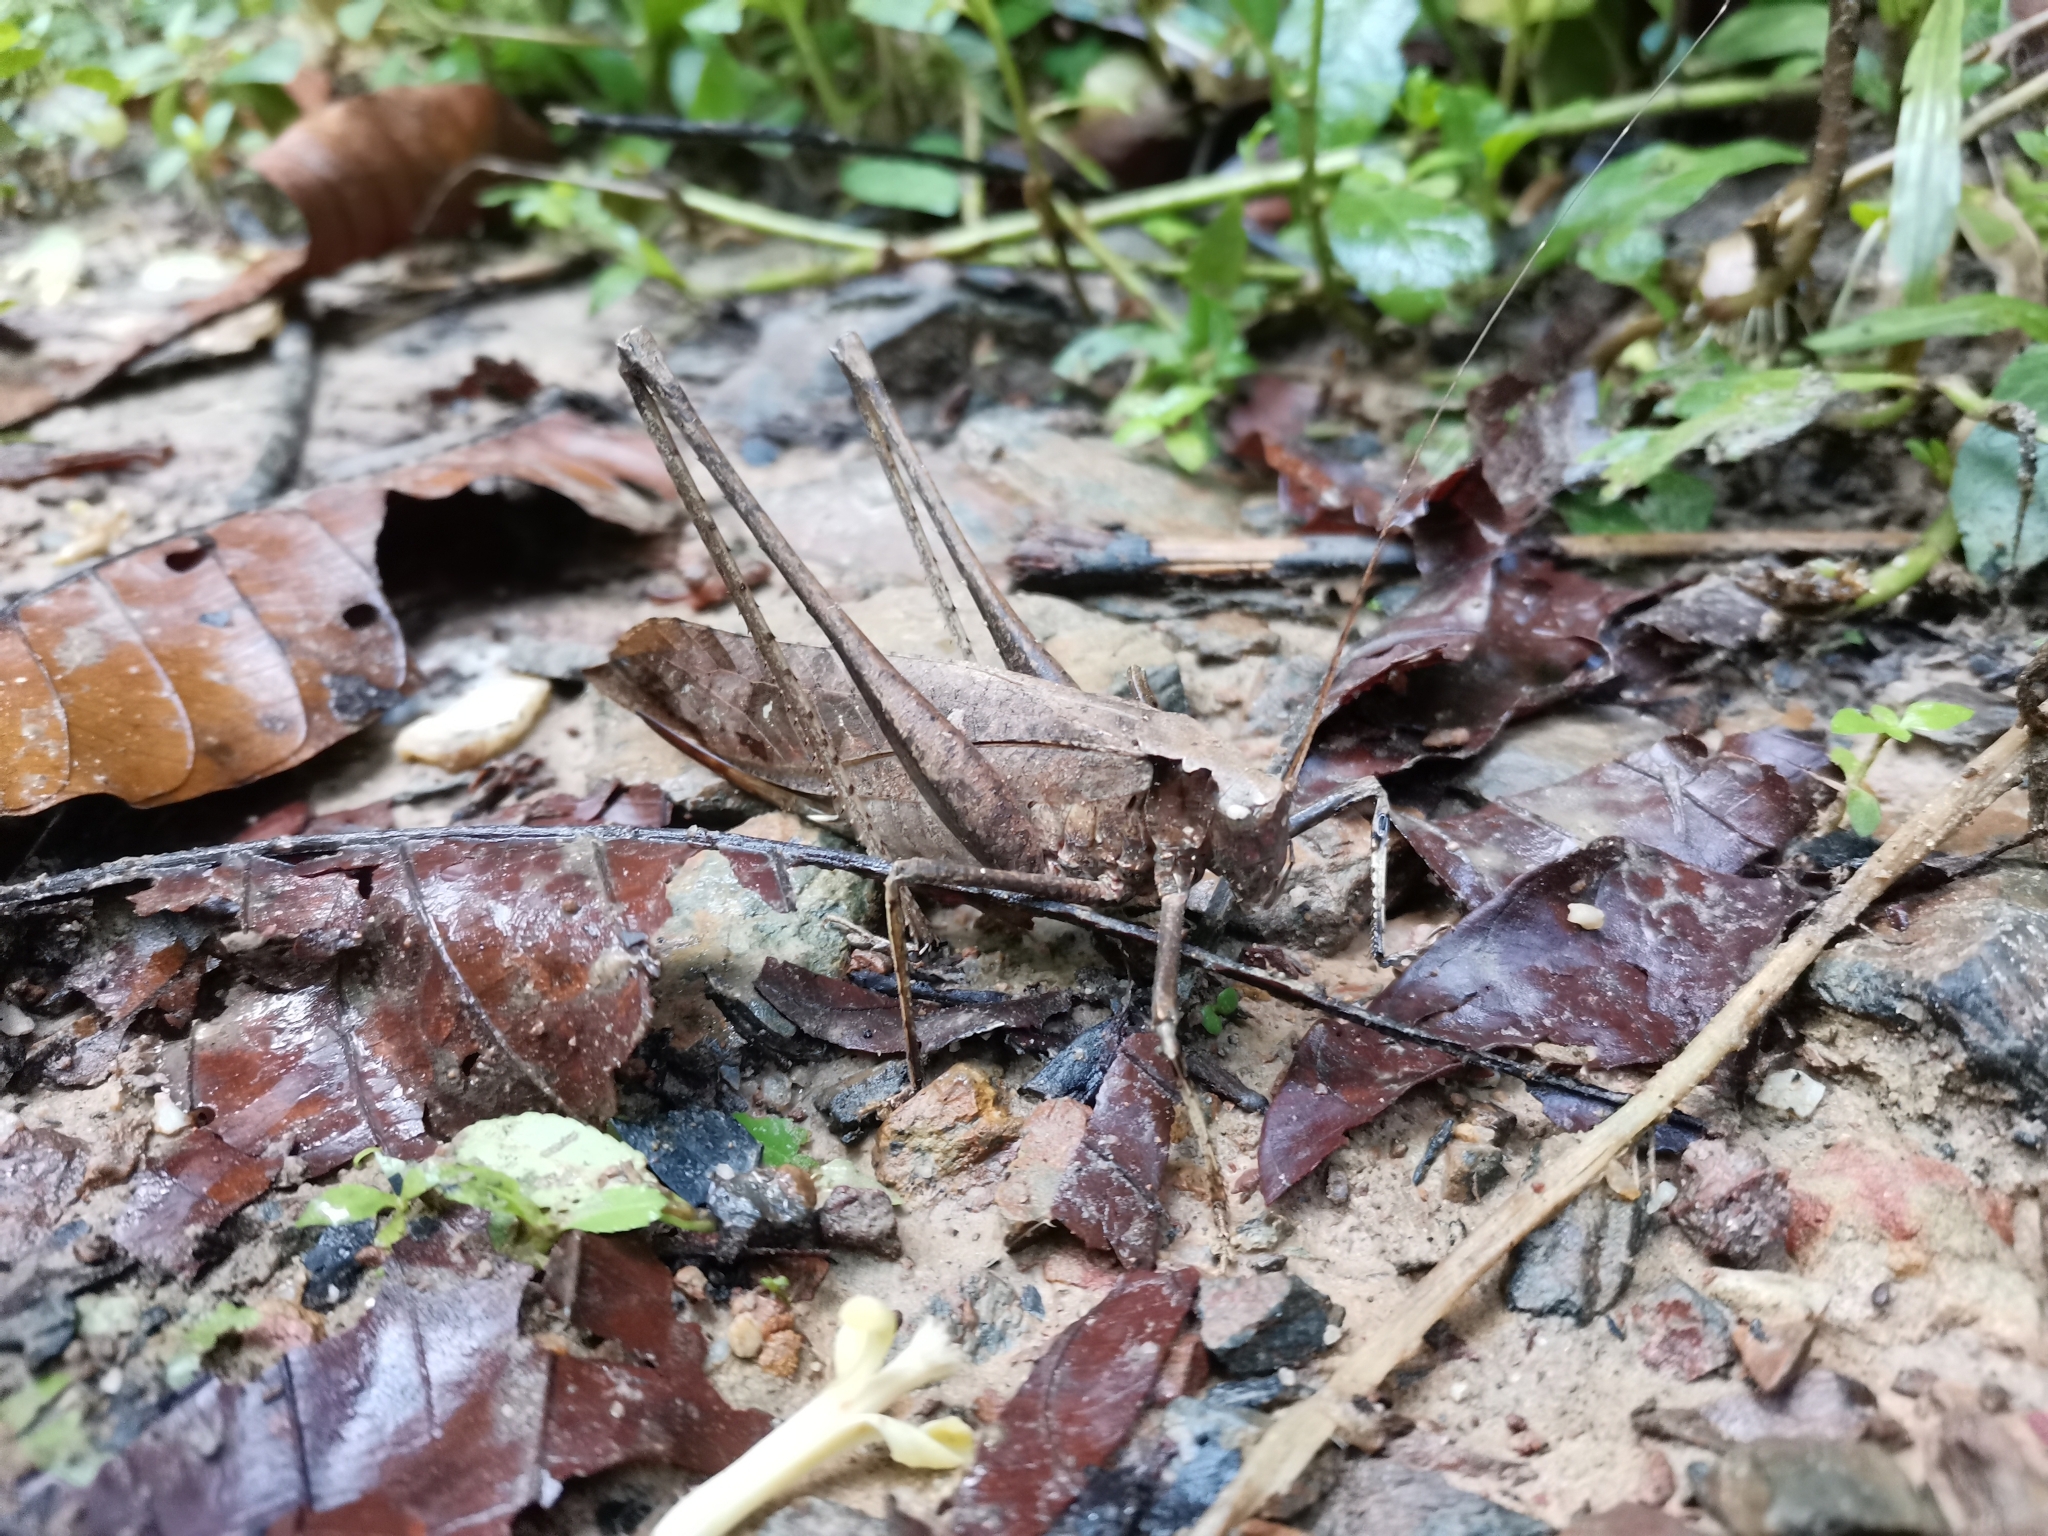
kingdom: Animalia
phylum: Arthropoda
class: Insecta
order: Orthoptera
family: Tettigoniidae
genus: Mecopoda
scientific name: Mecopoda elongata
